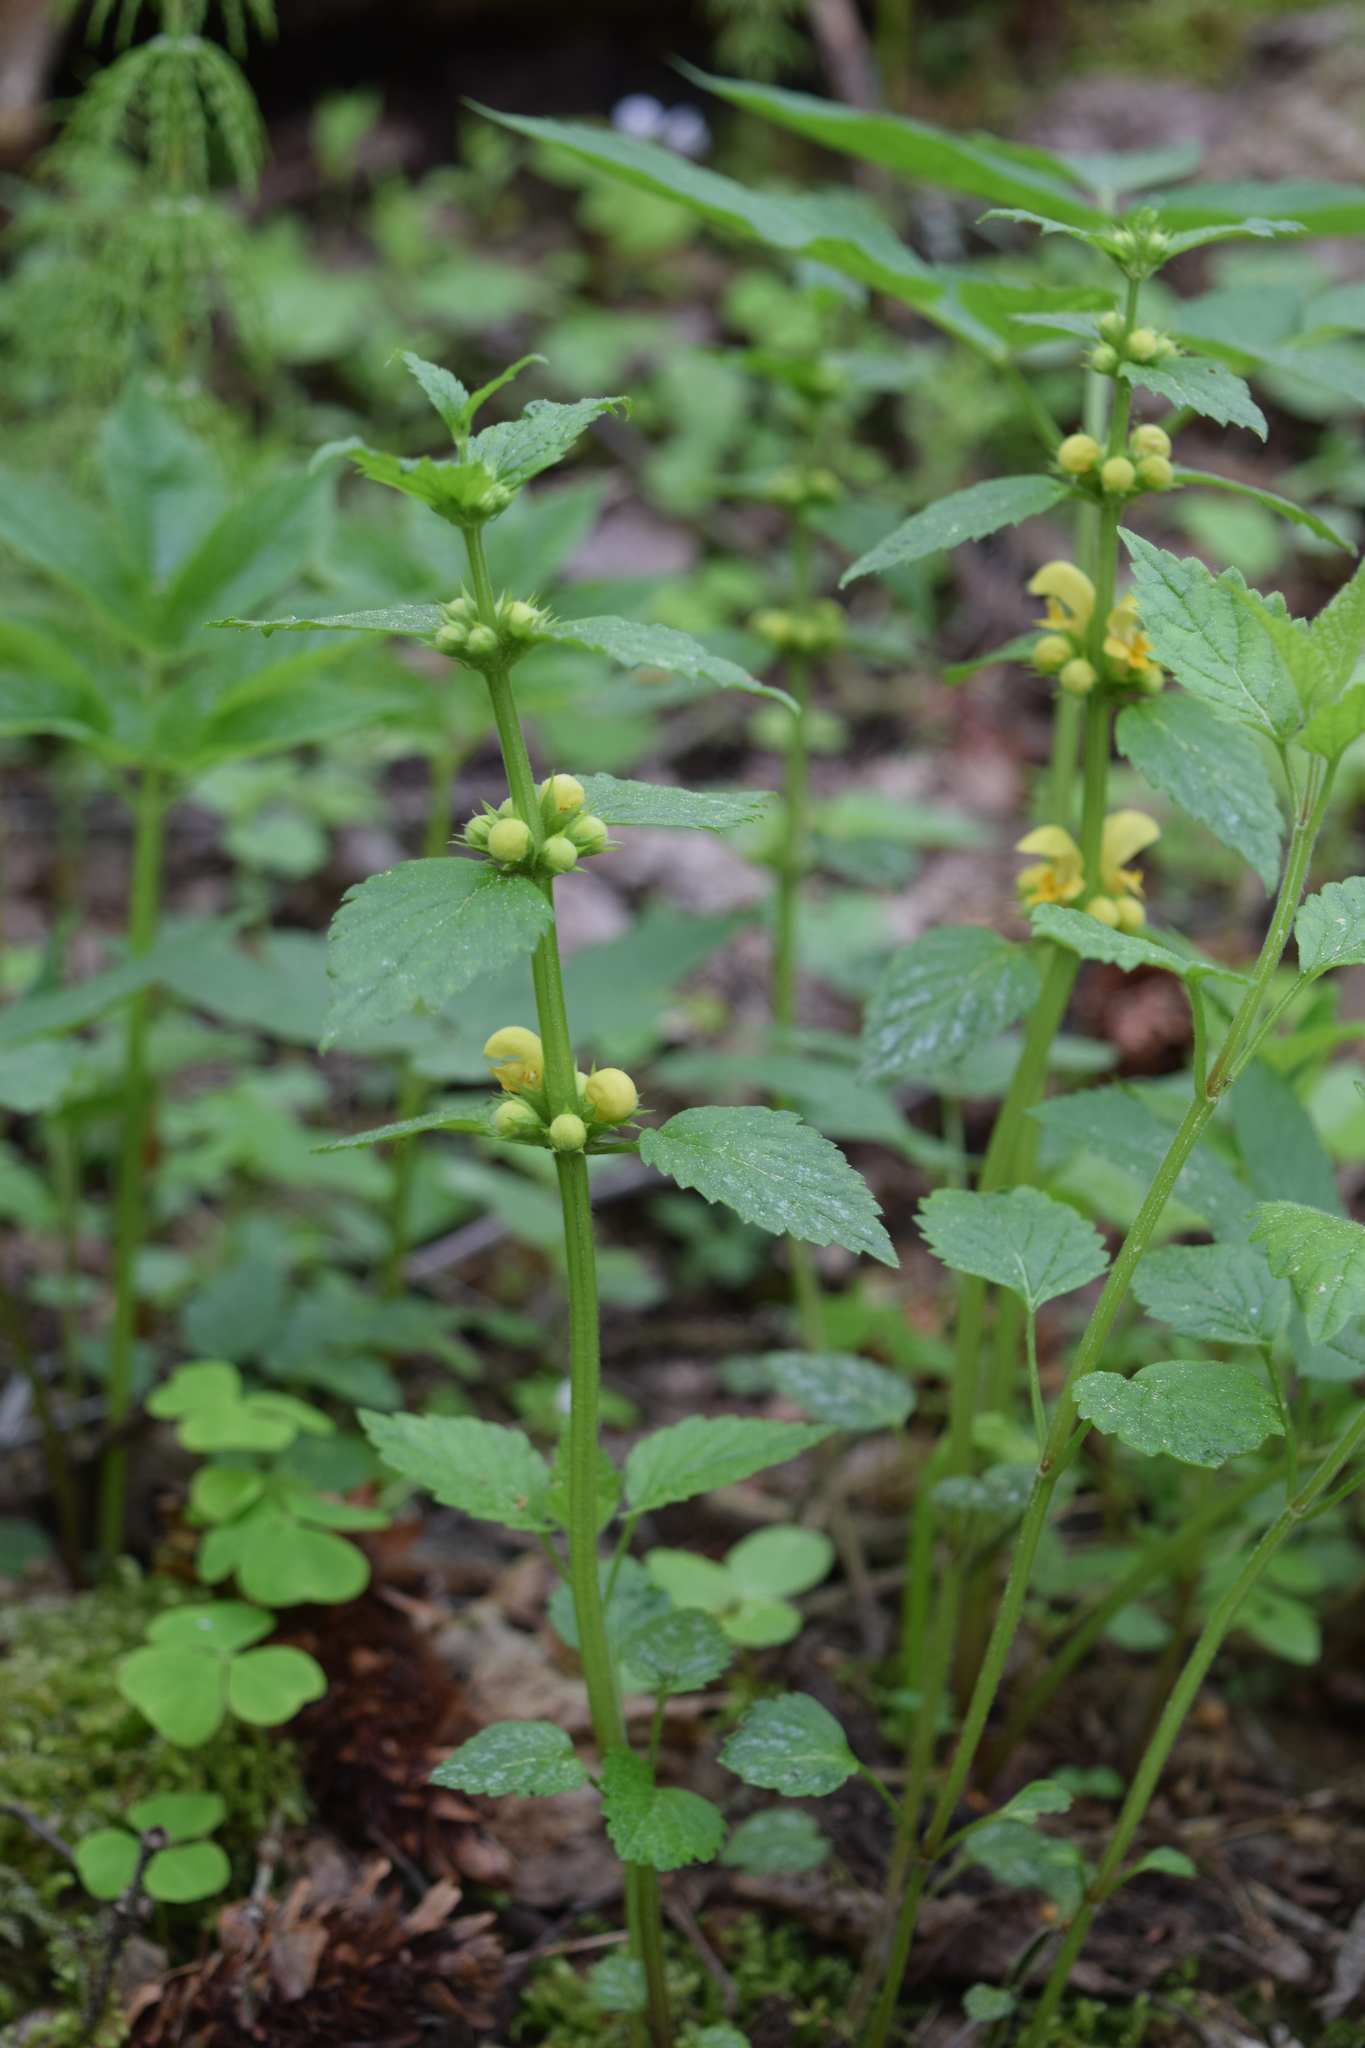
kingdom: Plantae
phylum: Tracheophyta
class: Magnoliopsida
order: Lamiales
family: Lamiaceae
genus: Lamium
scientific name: Lamium galeobdolon
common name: Yellow archangel
